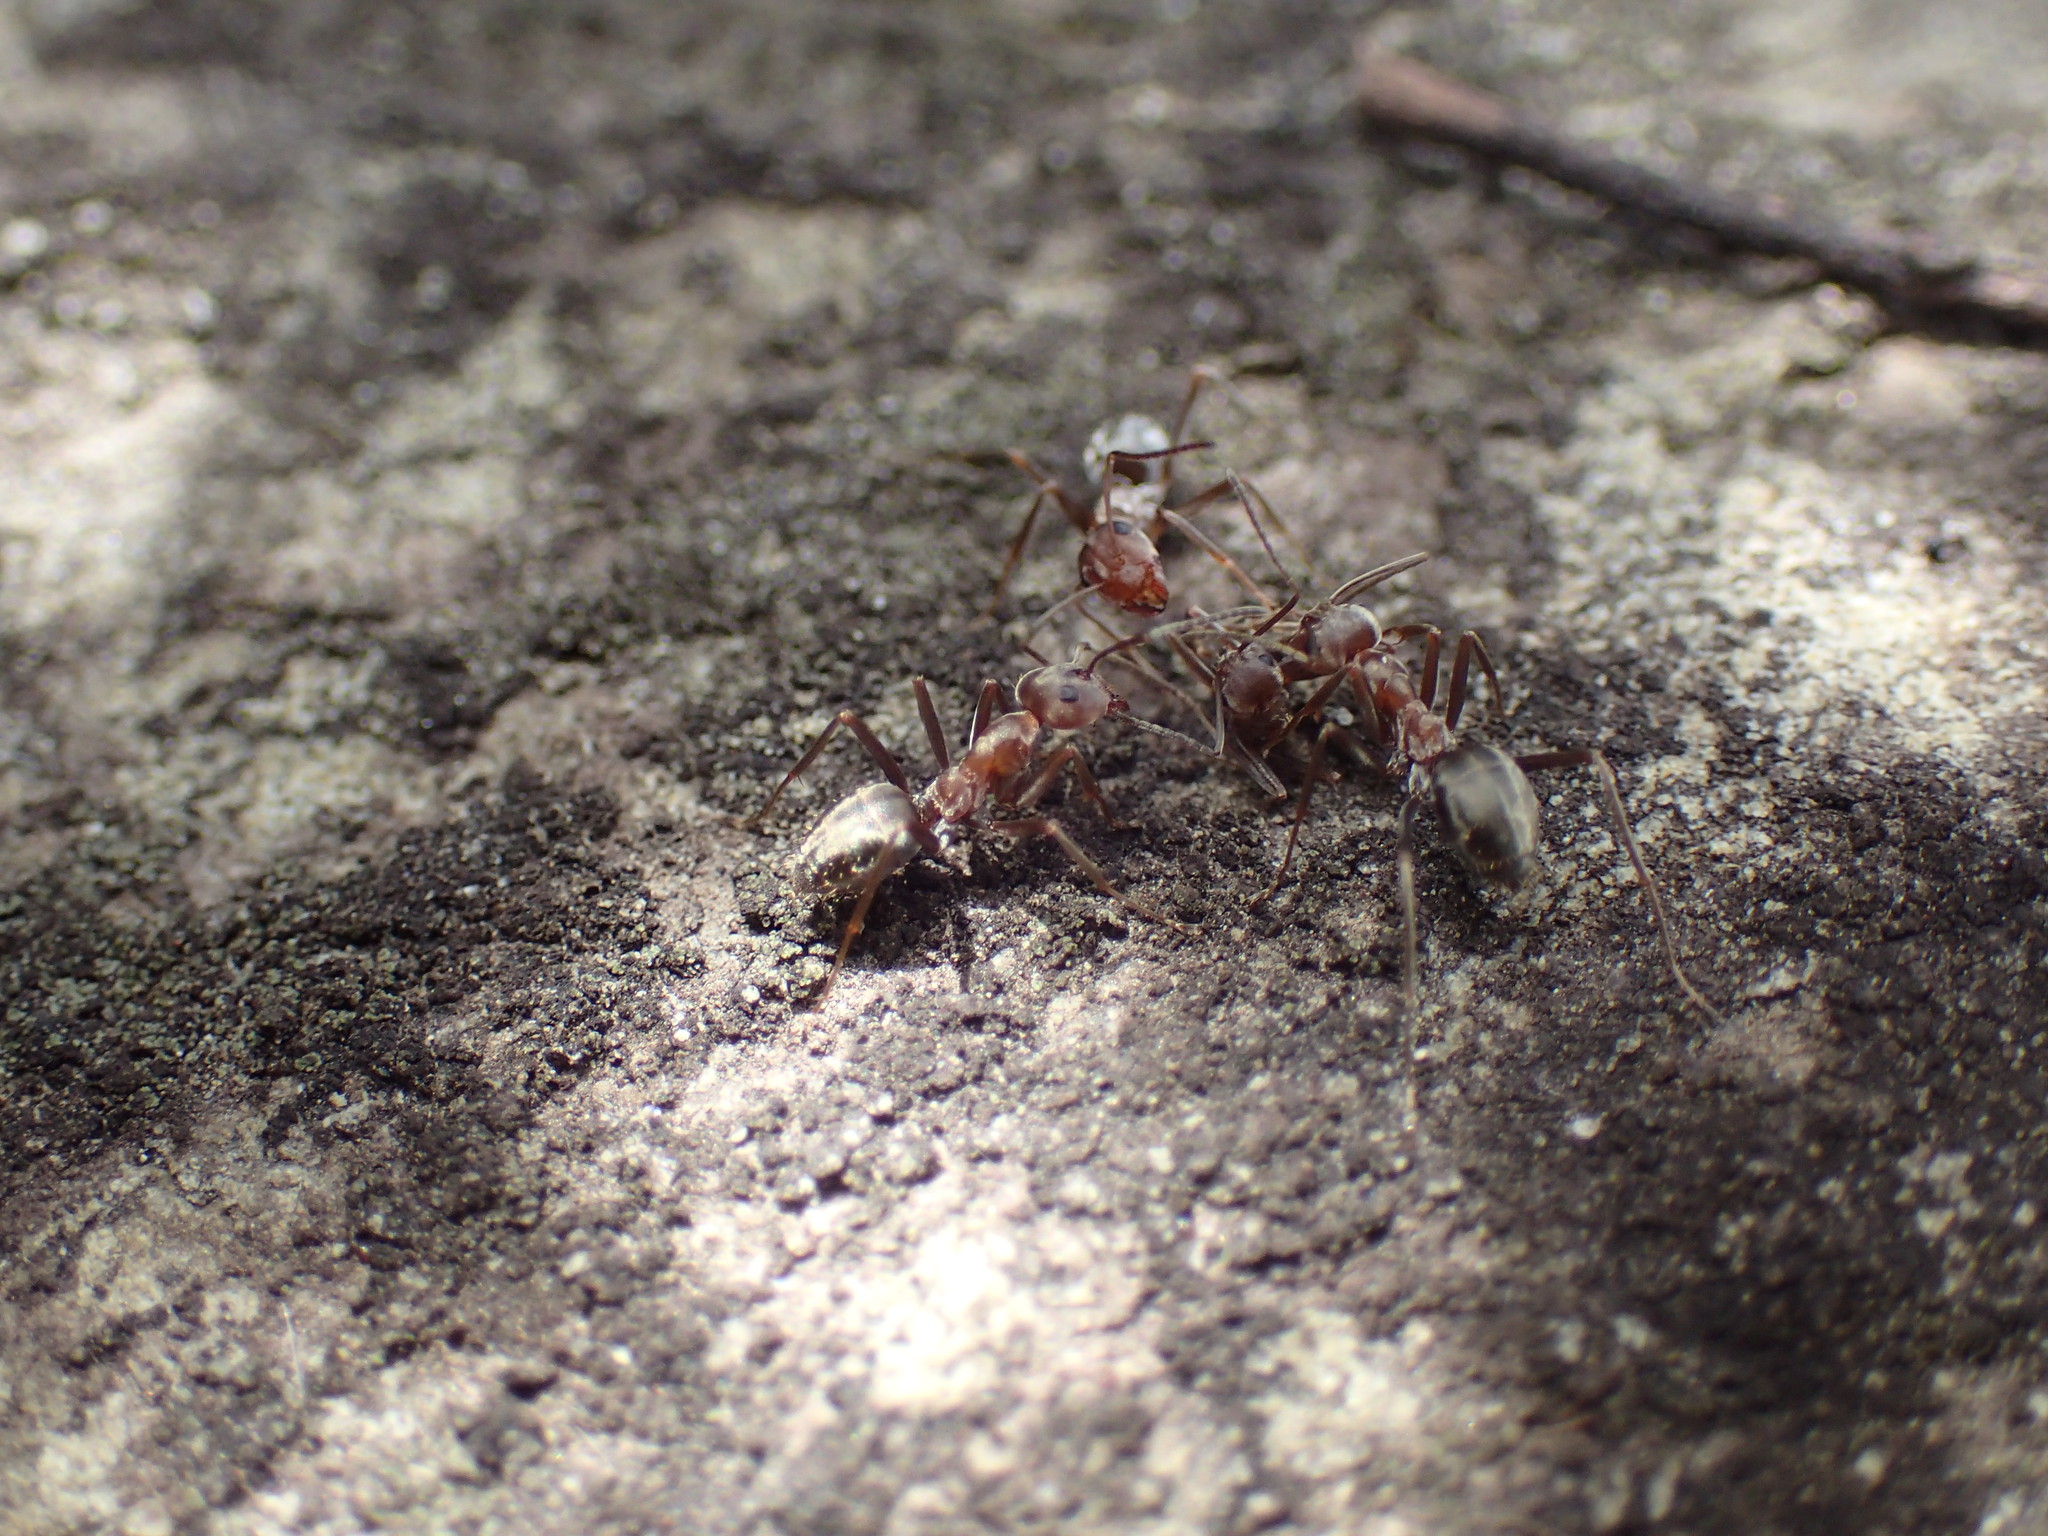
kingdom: Animalia
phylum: Arthropoda
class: Insecta
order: Hymenoptera
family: Formicidae
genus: Anoplolepis
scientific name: Anoplolepis custodiens
